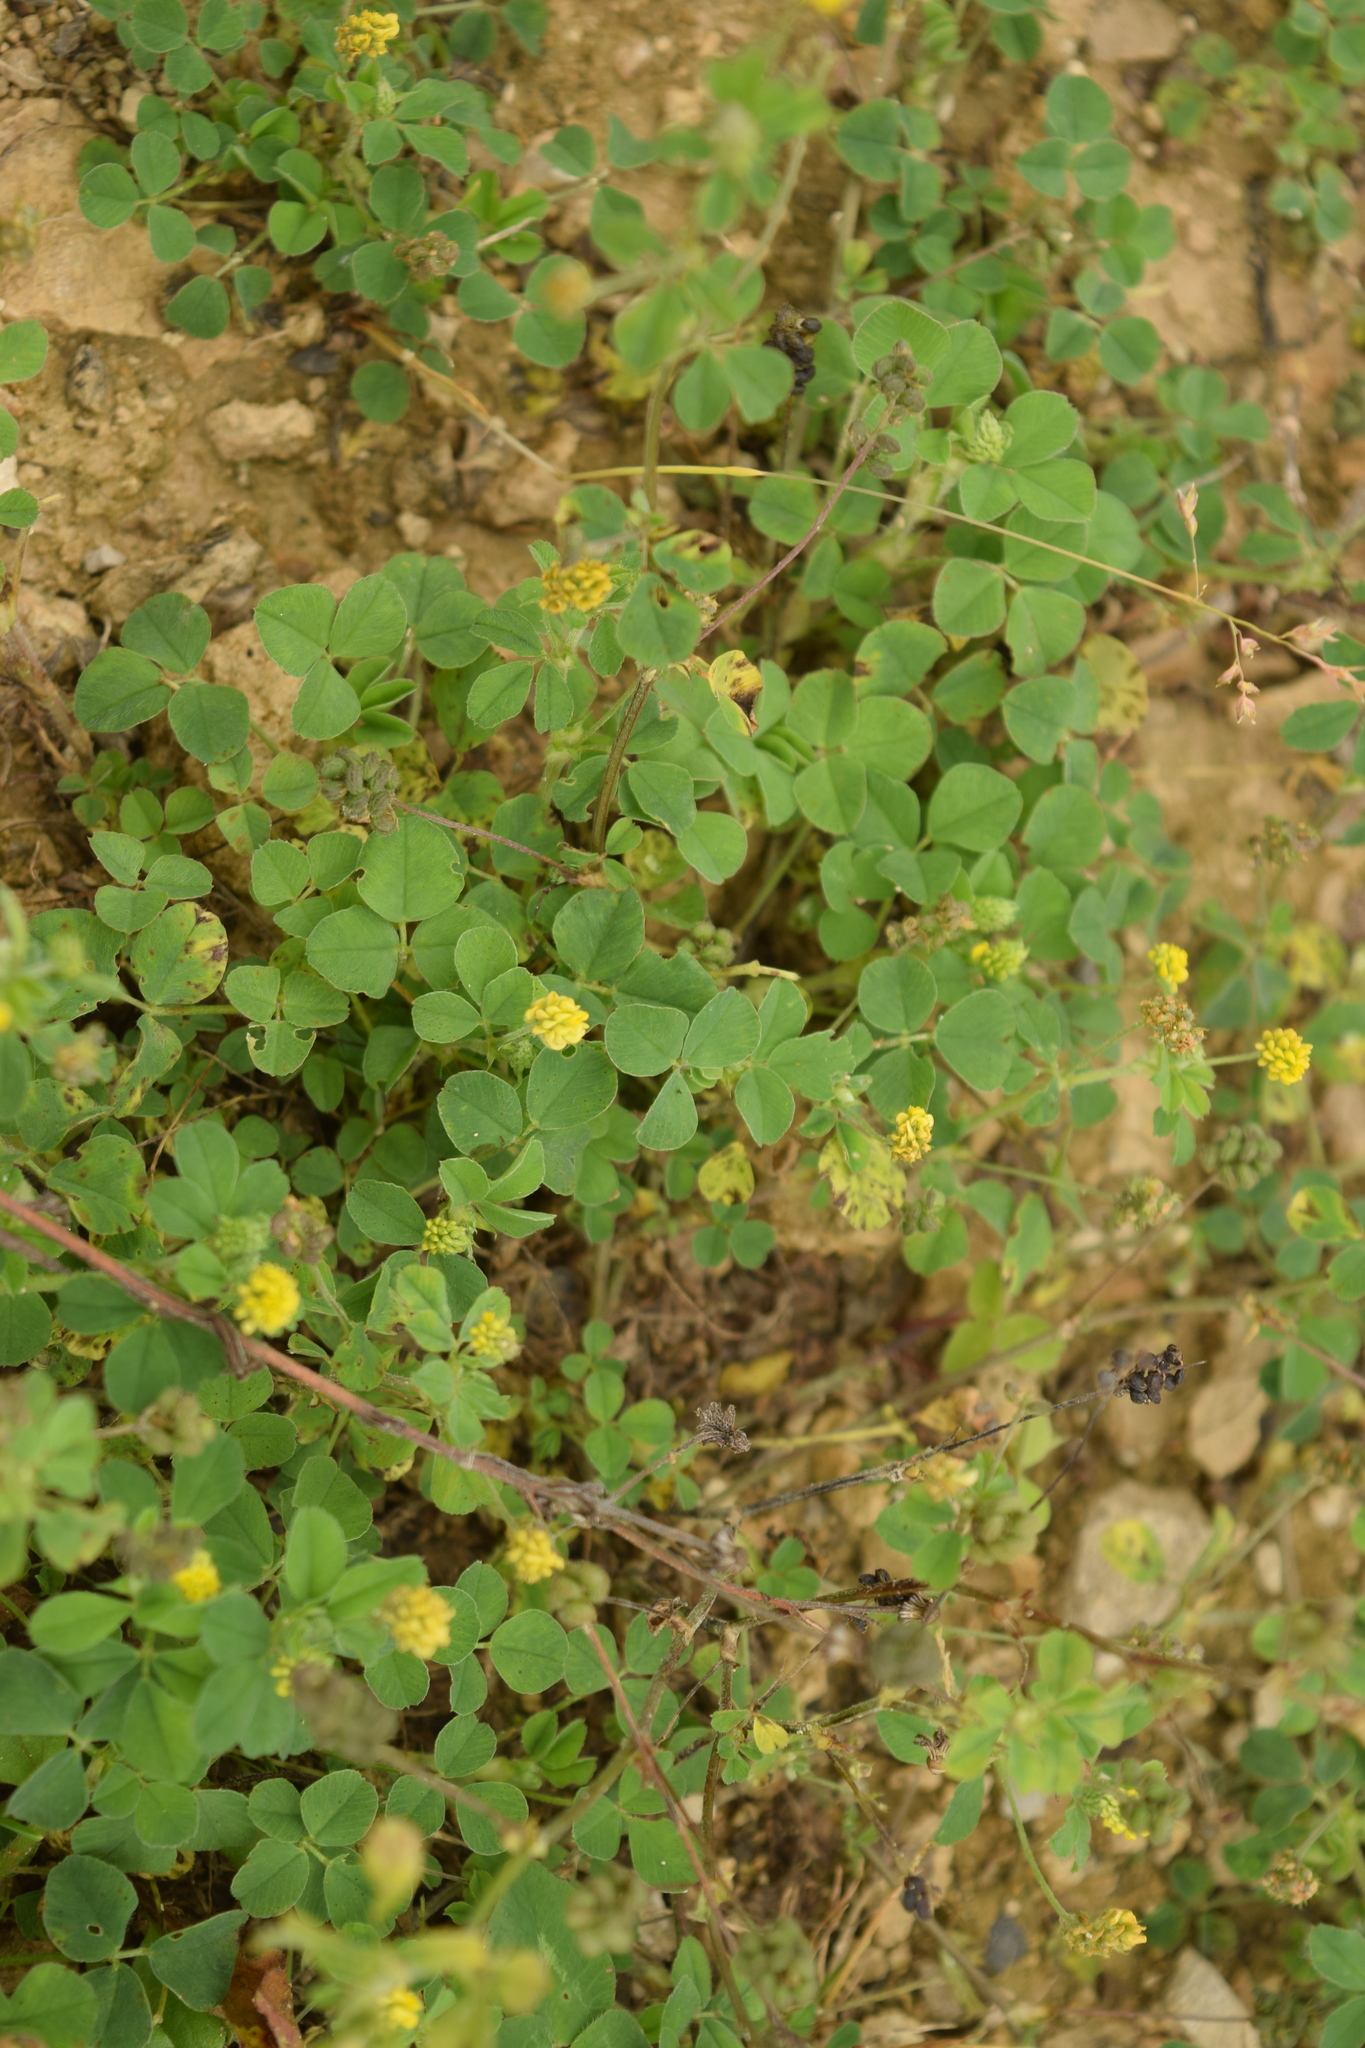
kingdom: Plantae
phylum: Tracheophyta
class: Magnoliopsida
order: Fabales
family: Fabaceae
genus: Medicago
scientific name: Medicago lupulina
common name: Black medick
